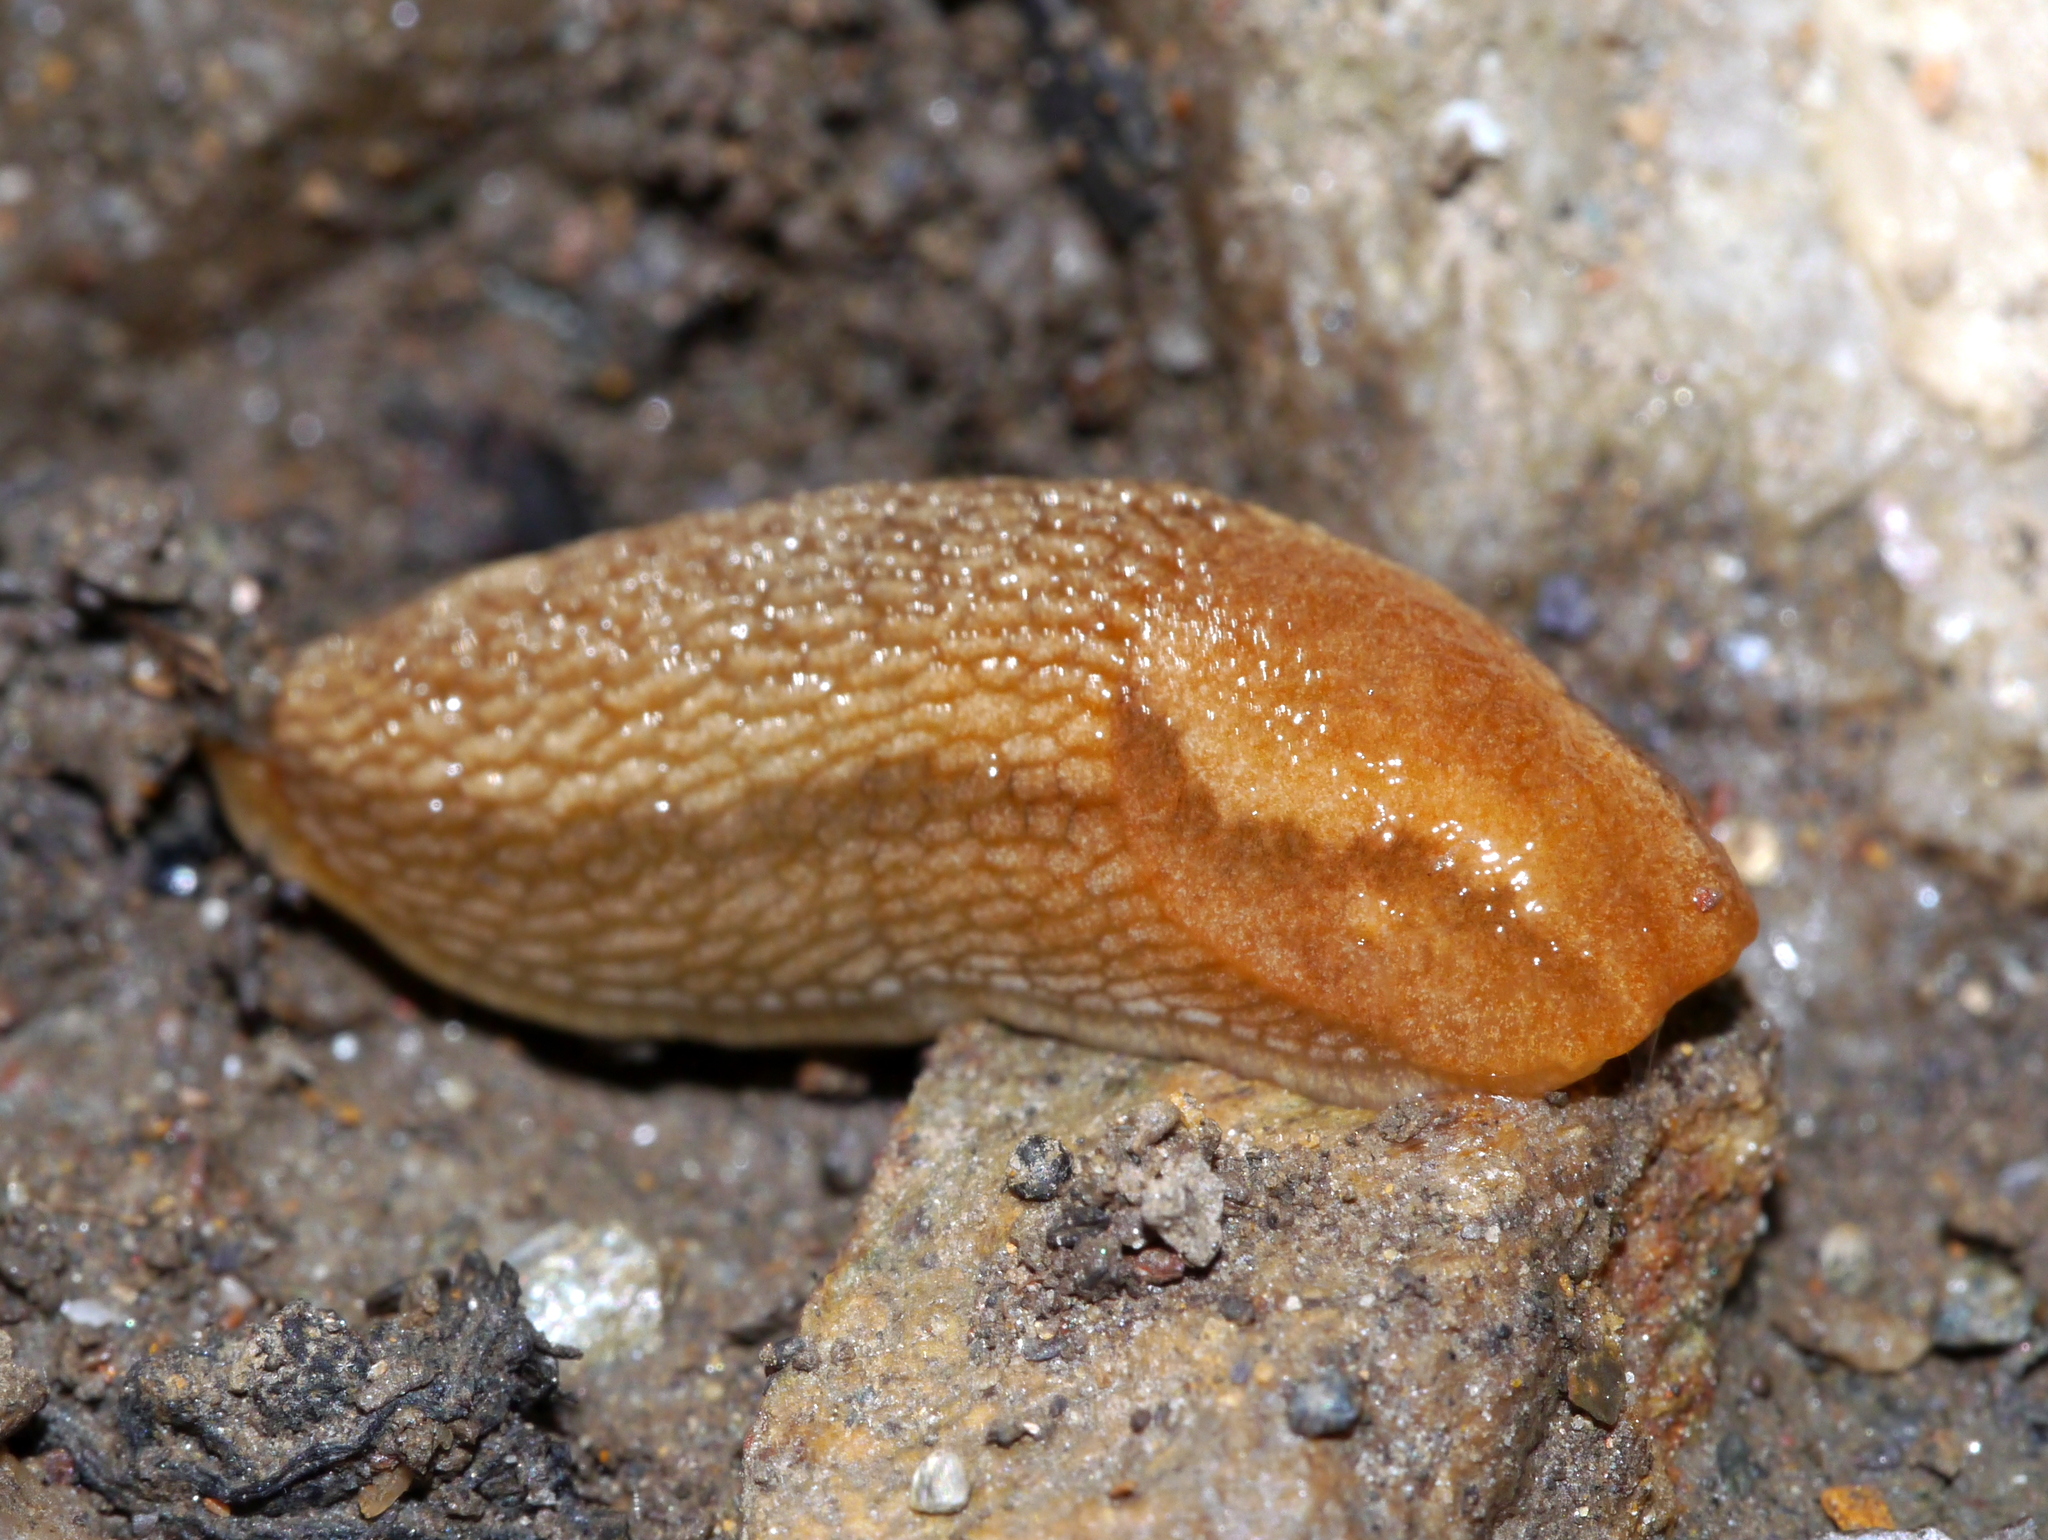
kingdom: Animalia
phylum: Mollusca
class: Gastropoda
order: Stylommatophora
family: Arionidae
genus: Arion
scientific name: Arion subfuscus
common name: Dusky arion
